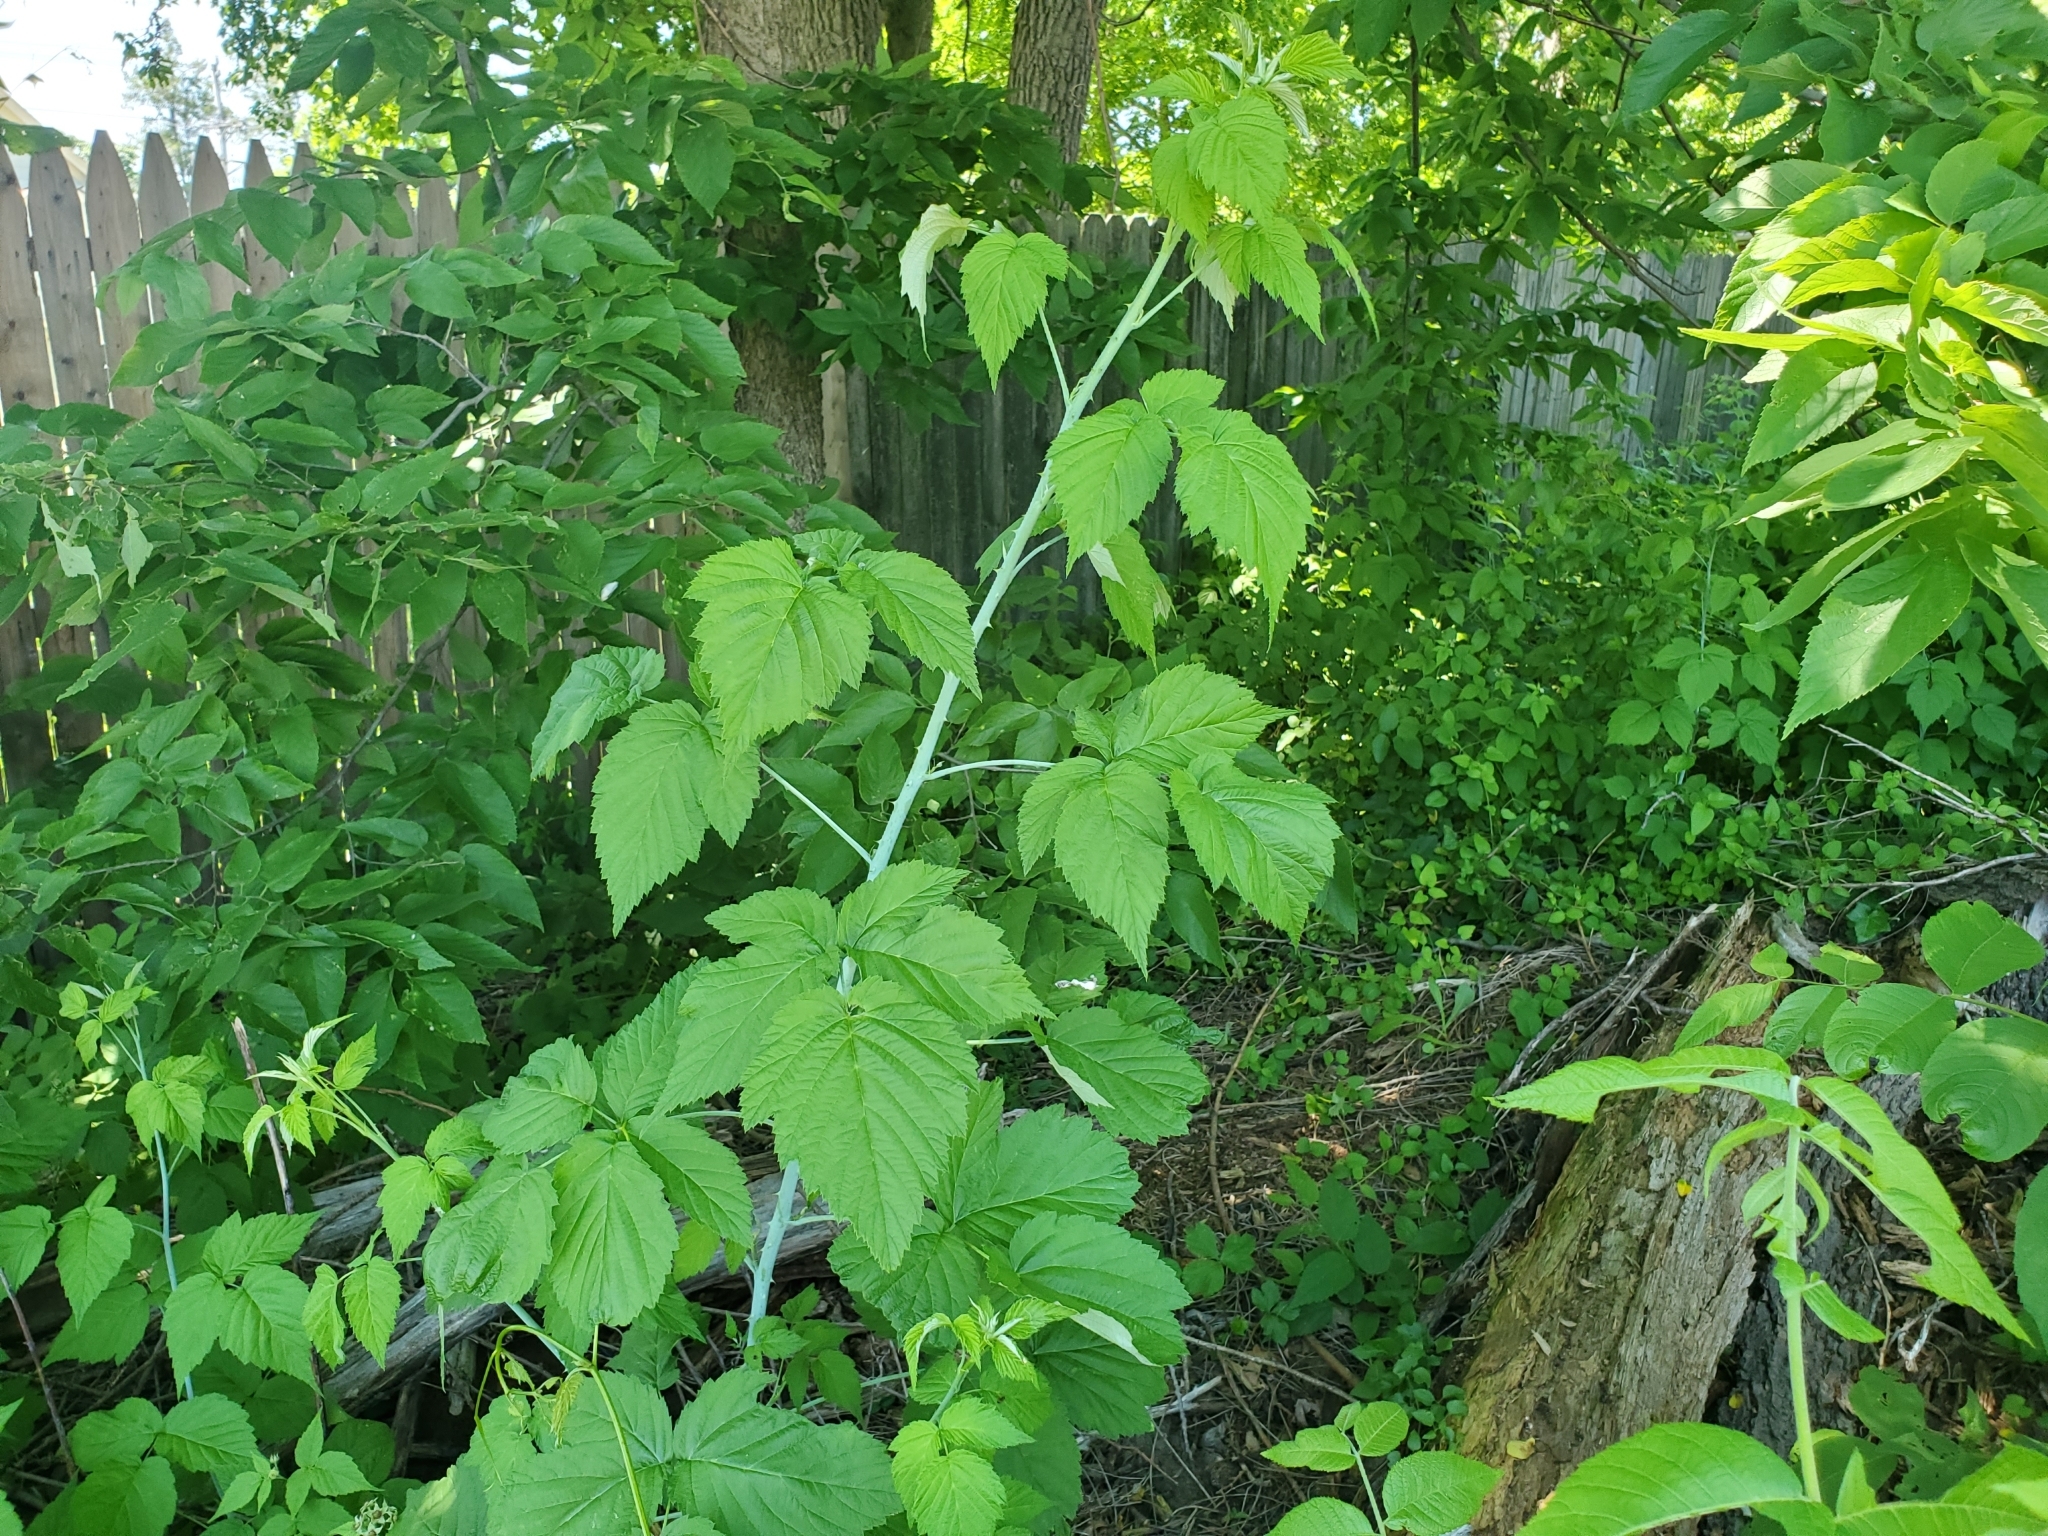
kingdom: Plantae
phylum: Tracheophyta
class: Magnoliopsida
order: Rosales
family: Rosaceae
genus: Rubus
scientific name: Rubus occidentalis
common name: Black raspberry
